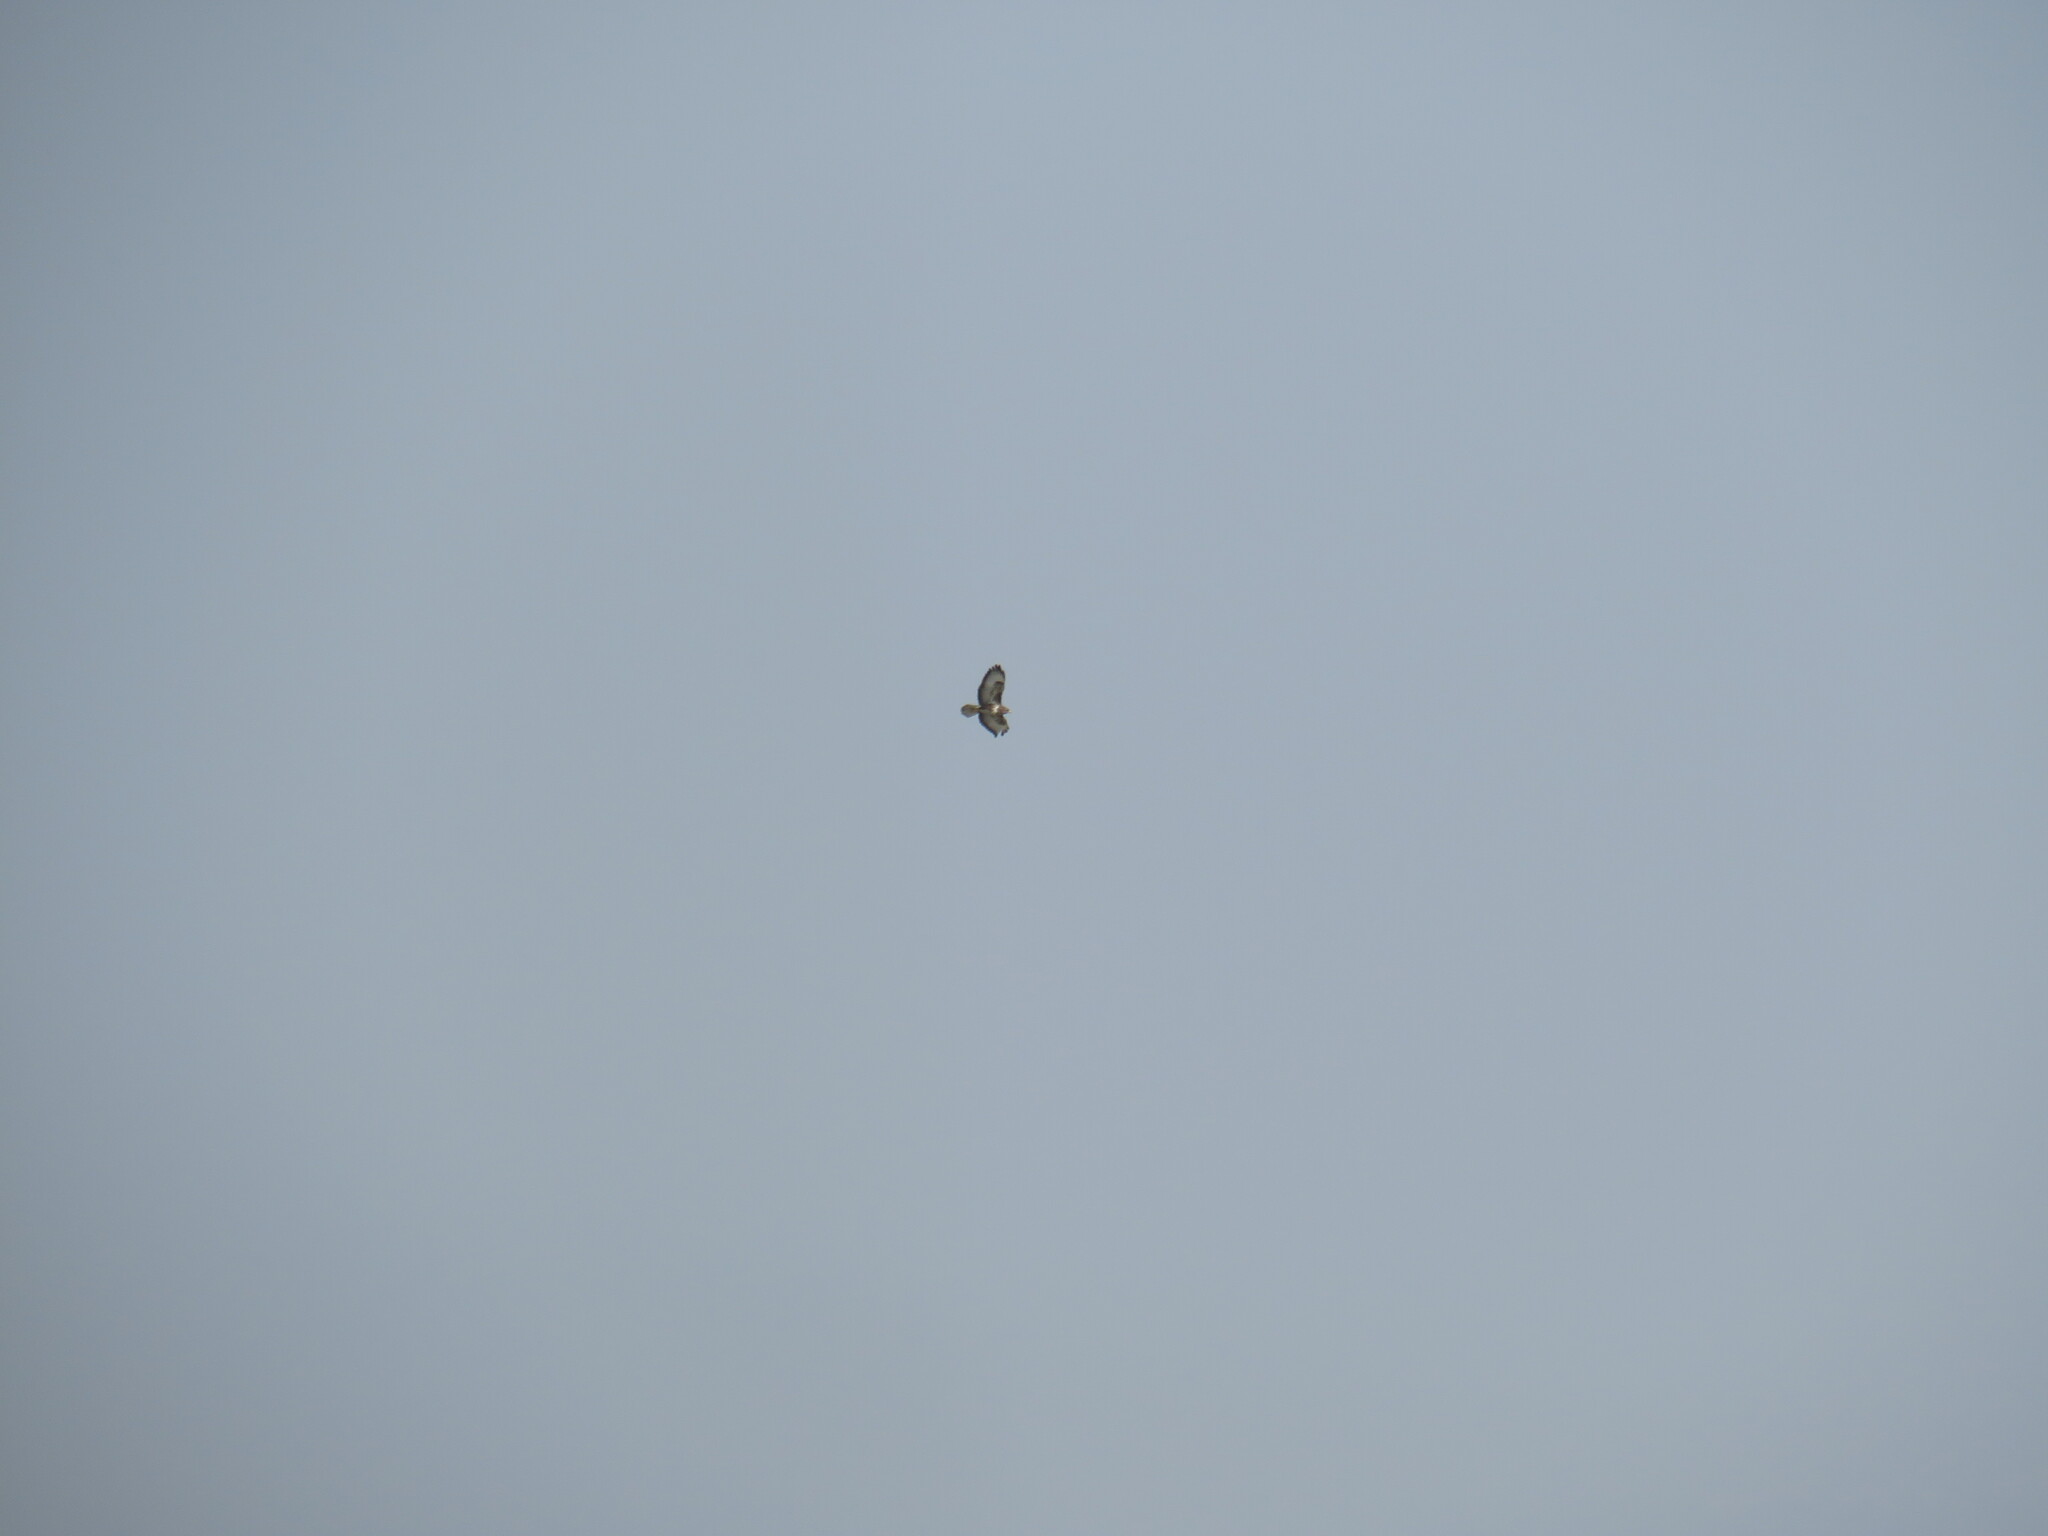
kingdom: Animalia
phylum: Chordata
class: Aves
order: Accipitriformes
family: Accipitridae
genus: Buteo
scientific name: Buteo buteo
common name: Common buzzard
